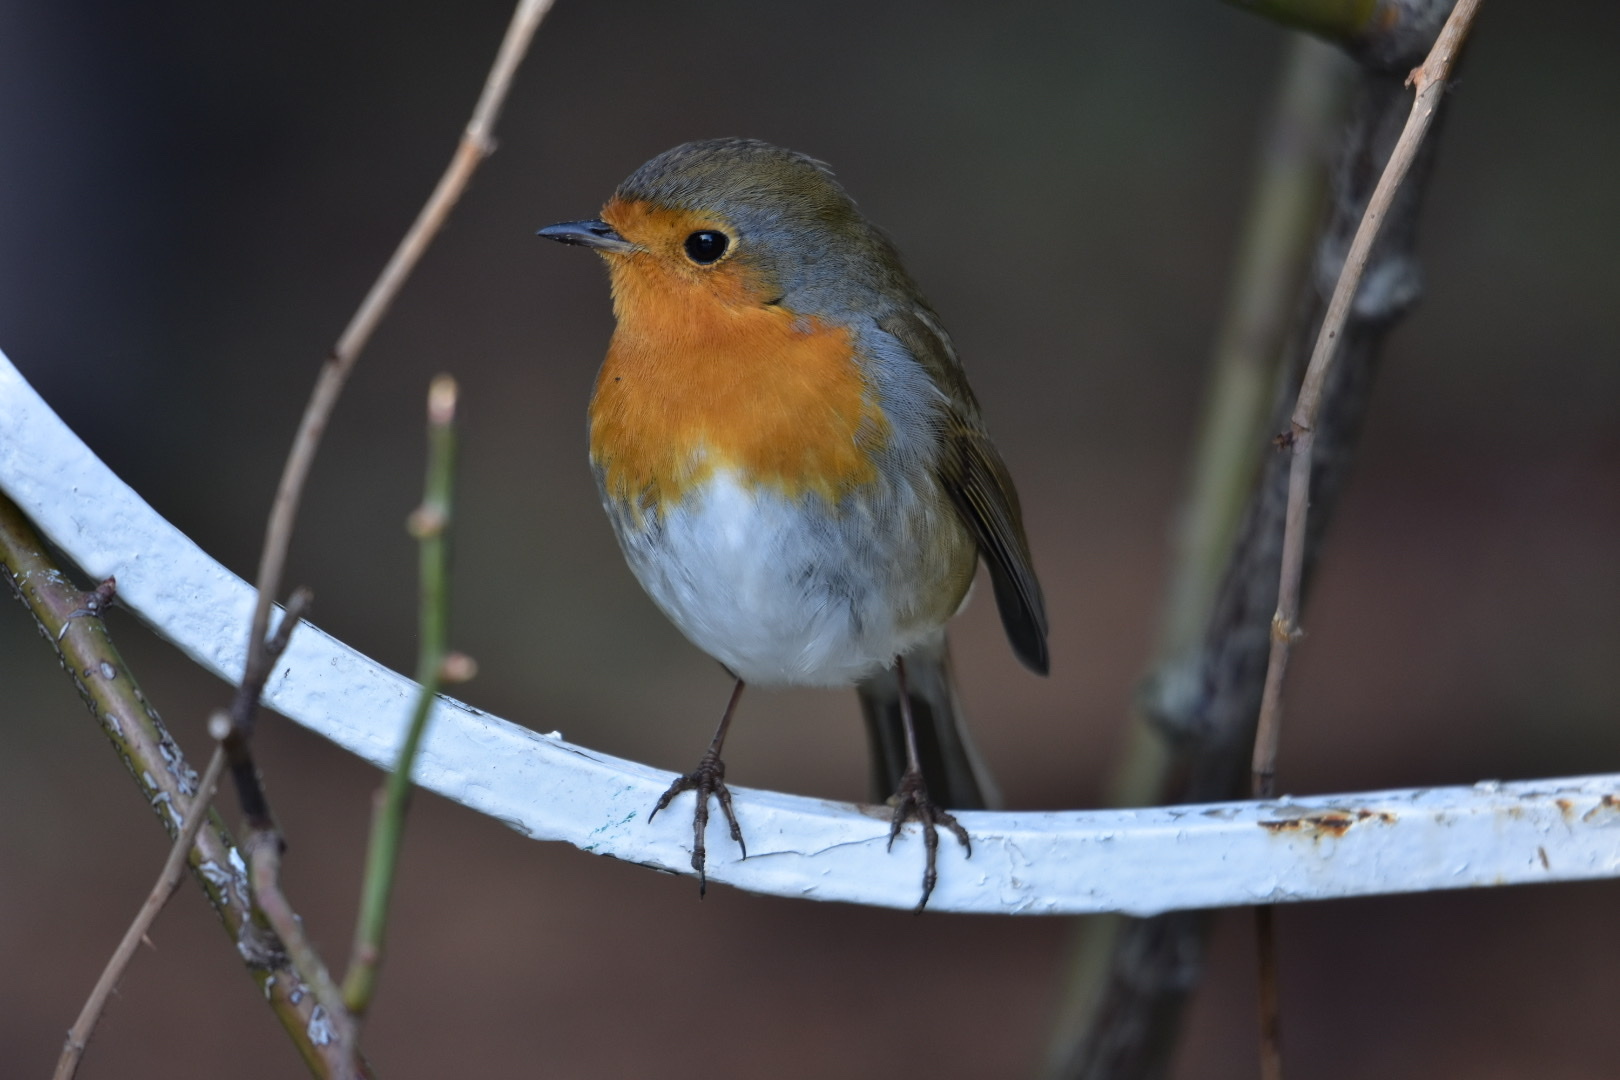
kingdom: Animalia
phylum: Chordata
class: Aves
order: Passeriformes
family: Muscicapidae
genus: Erithacus
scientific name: Erithacus rubecula
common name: European robin
